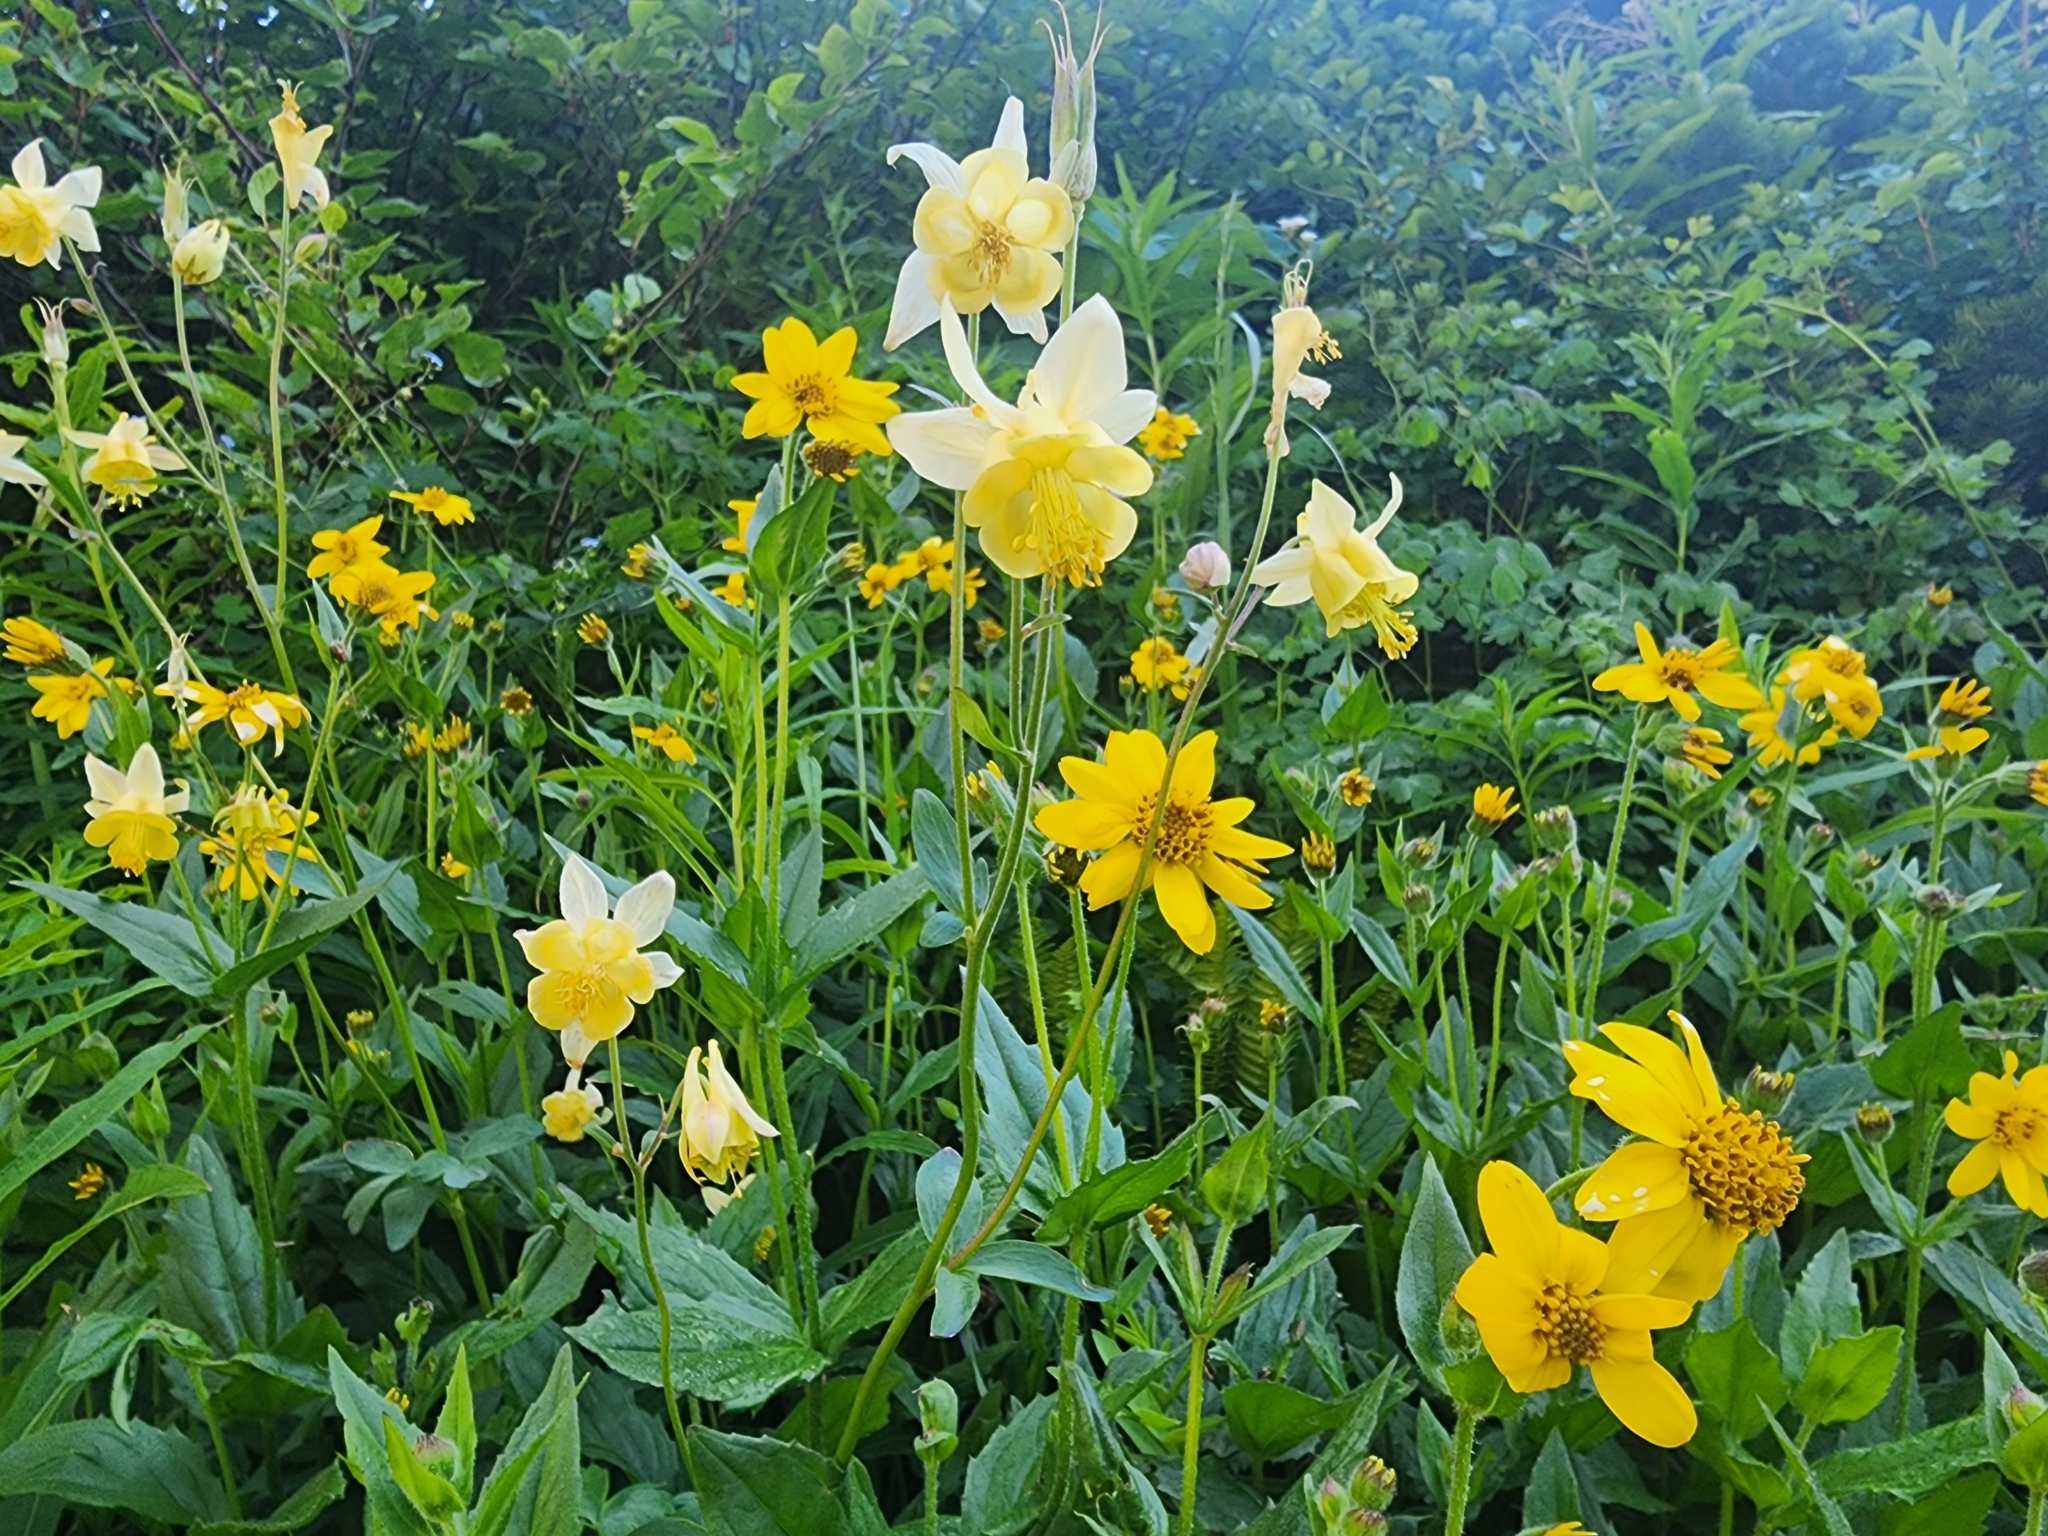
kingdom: Plantae
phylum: Tracheophyta
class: Magnoliopsida
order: Ranunculales
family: Ranunculaceae
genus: Aquilegia
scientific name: Aquilegia flavescens
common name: Yellow columbine
